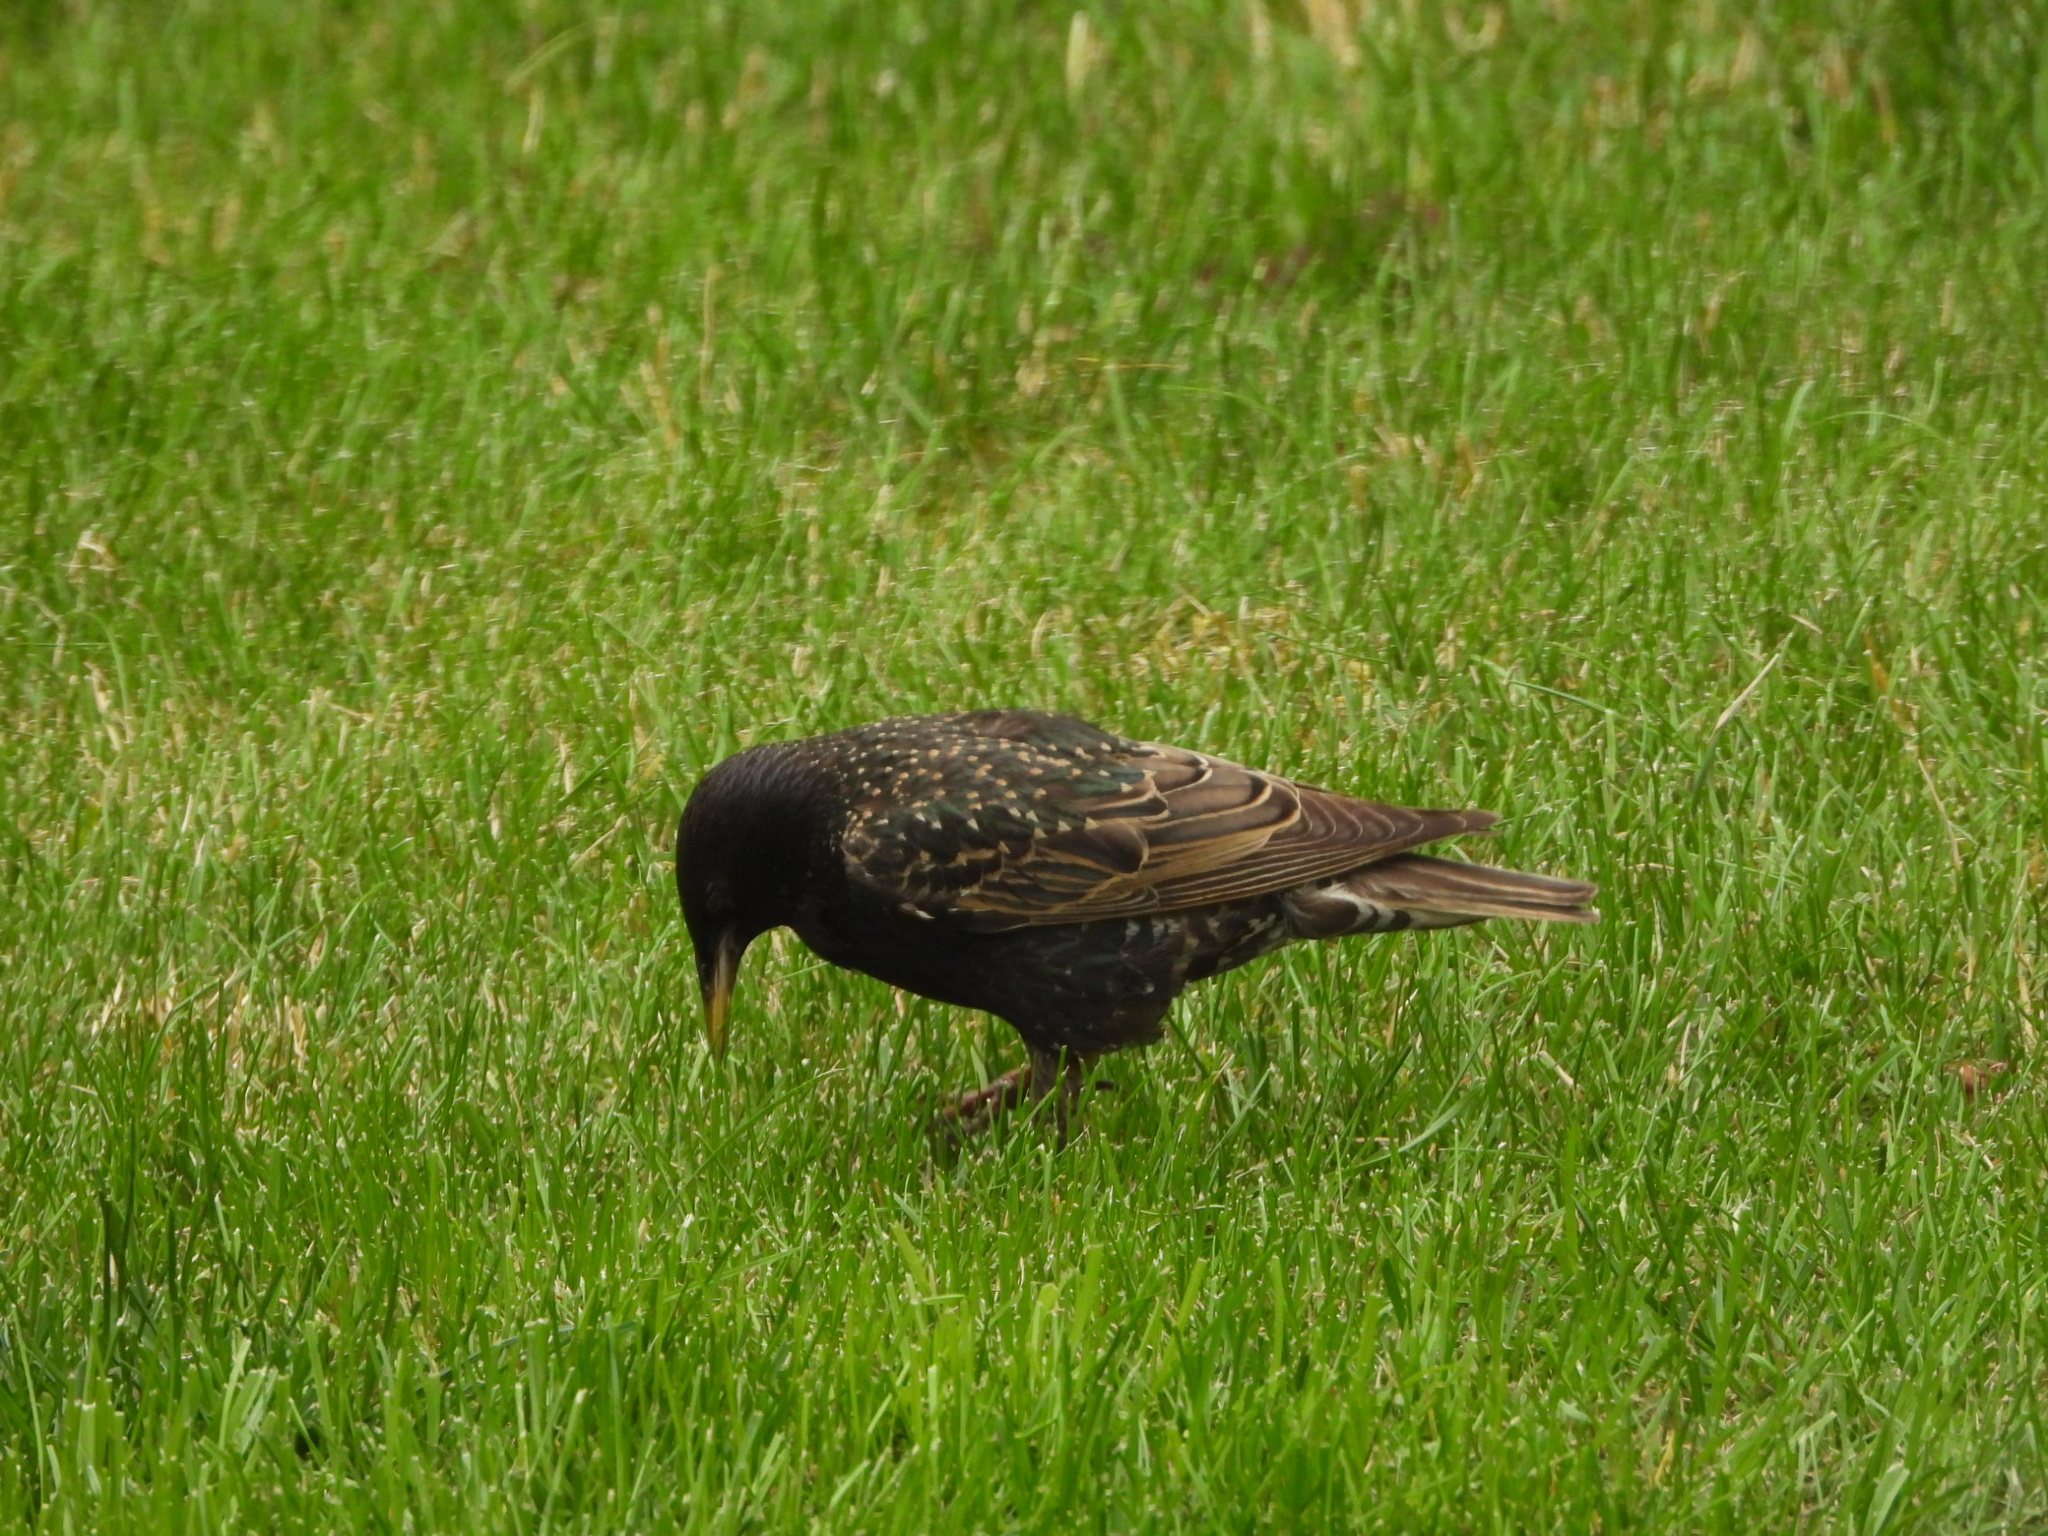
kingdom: Animalia
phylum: Chordata
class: Aves
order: Passeriformes
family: Sturnidae
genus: Sturnus
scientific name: Sturnus vulgaris
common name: Common starling
